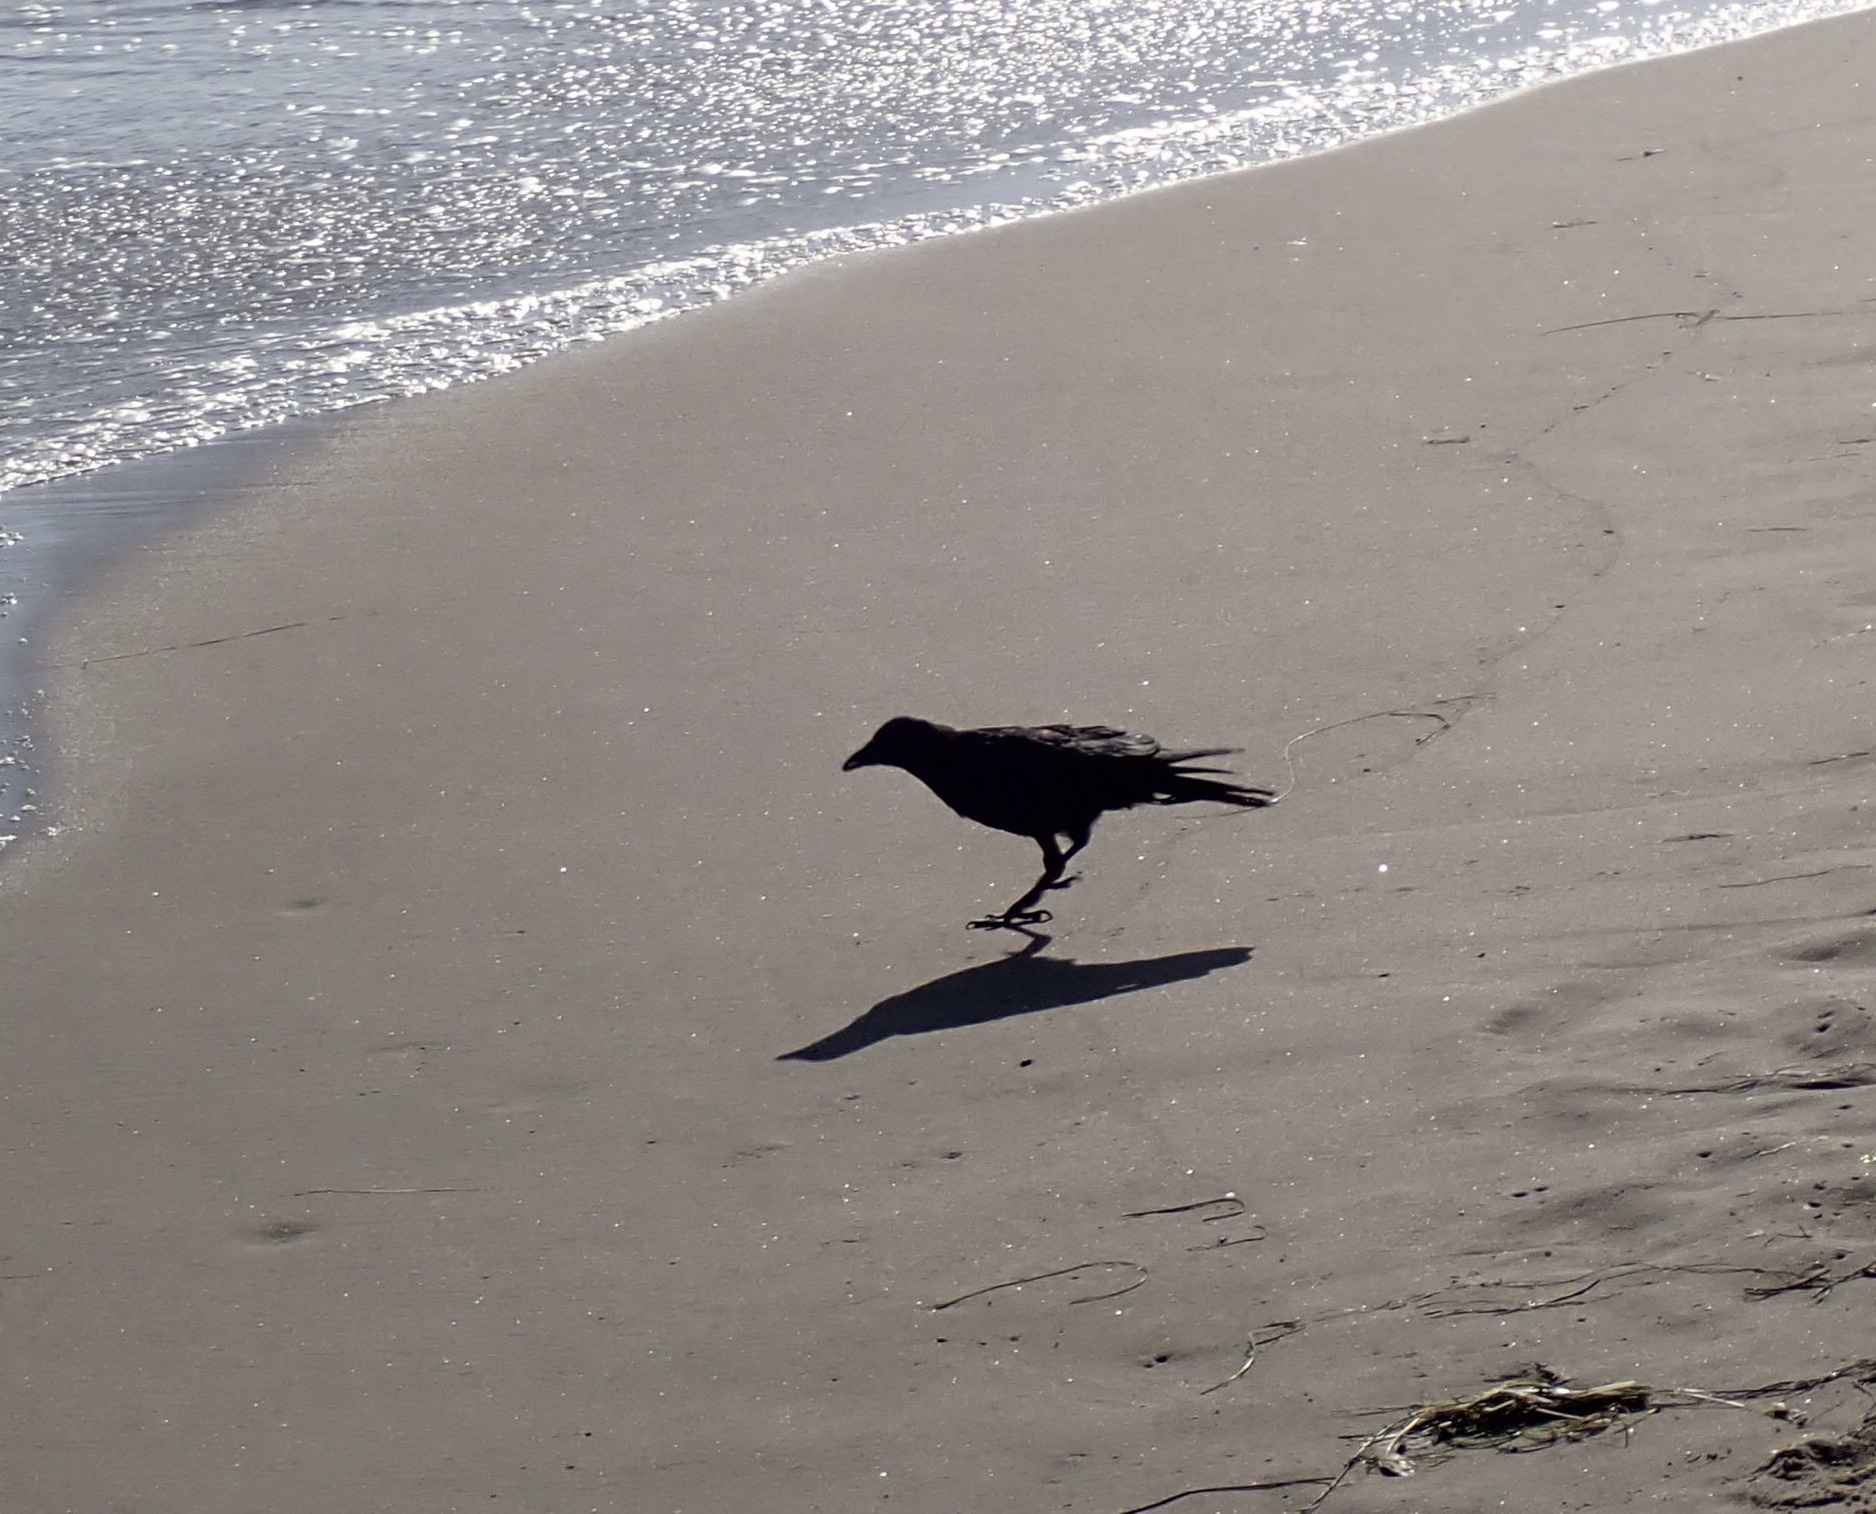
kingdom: Animalia
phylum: Chordata
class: Aves
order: Passeriformes
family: Corvidae
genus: Corvus
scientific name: Corvus brachyrhynchos
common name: American crow
